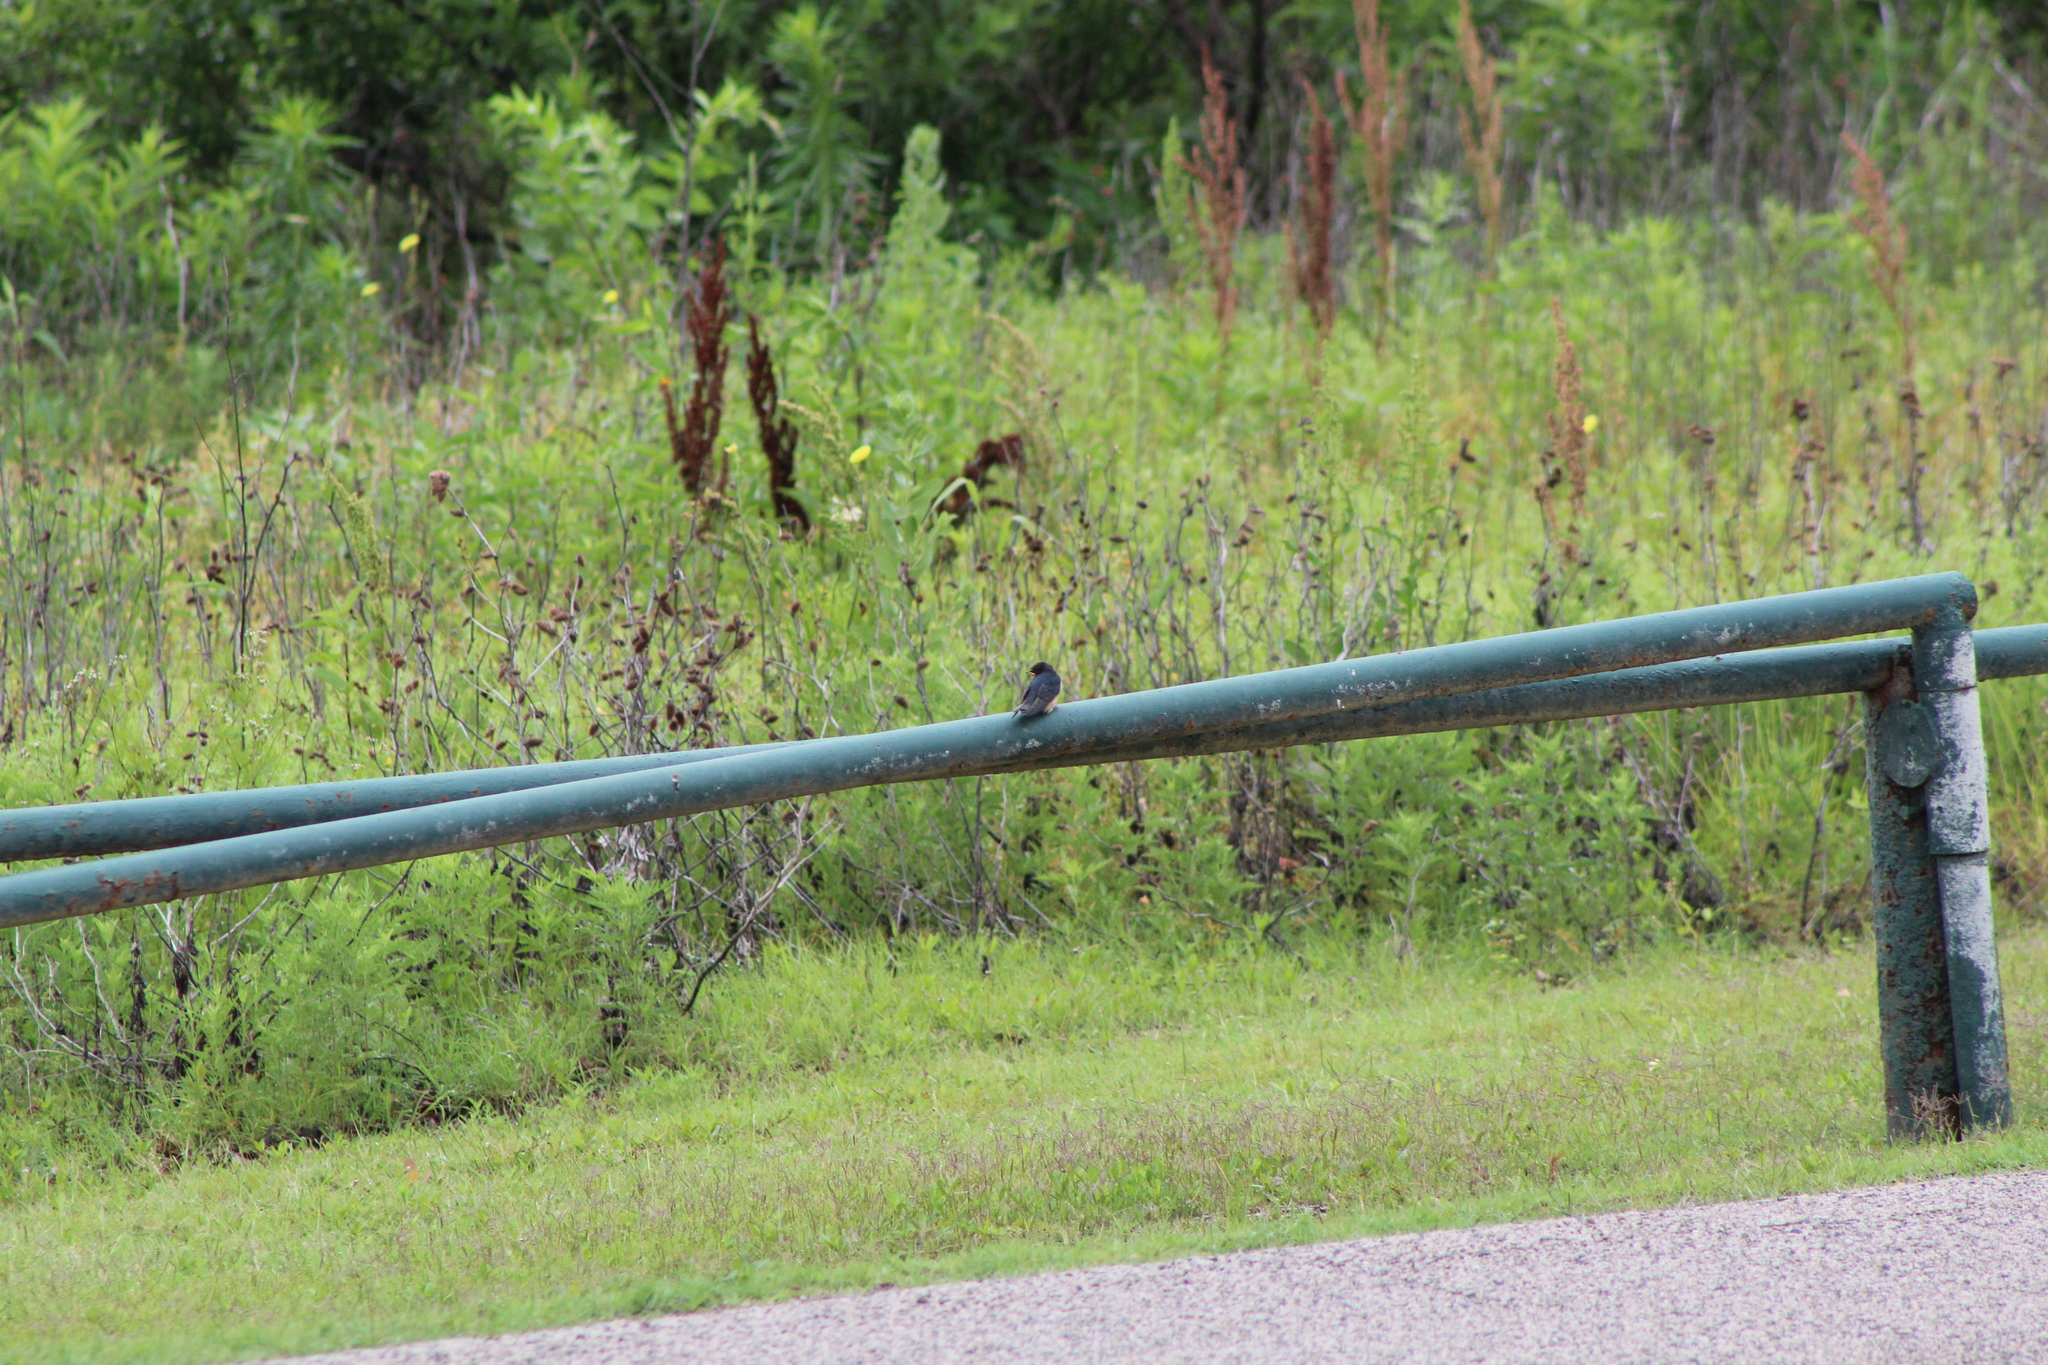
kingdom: Animalia
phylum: Chordata
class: Aves
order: Passeriformes
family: Hirundinidae
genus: Hirundo
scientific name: Hirundo rustica
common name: Barn swallow
